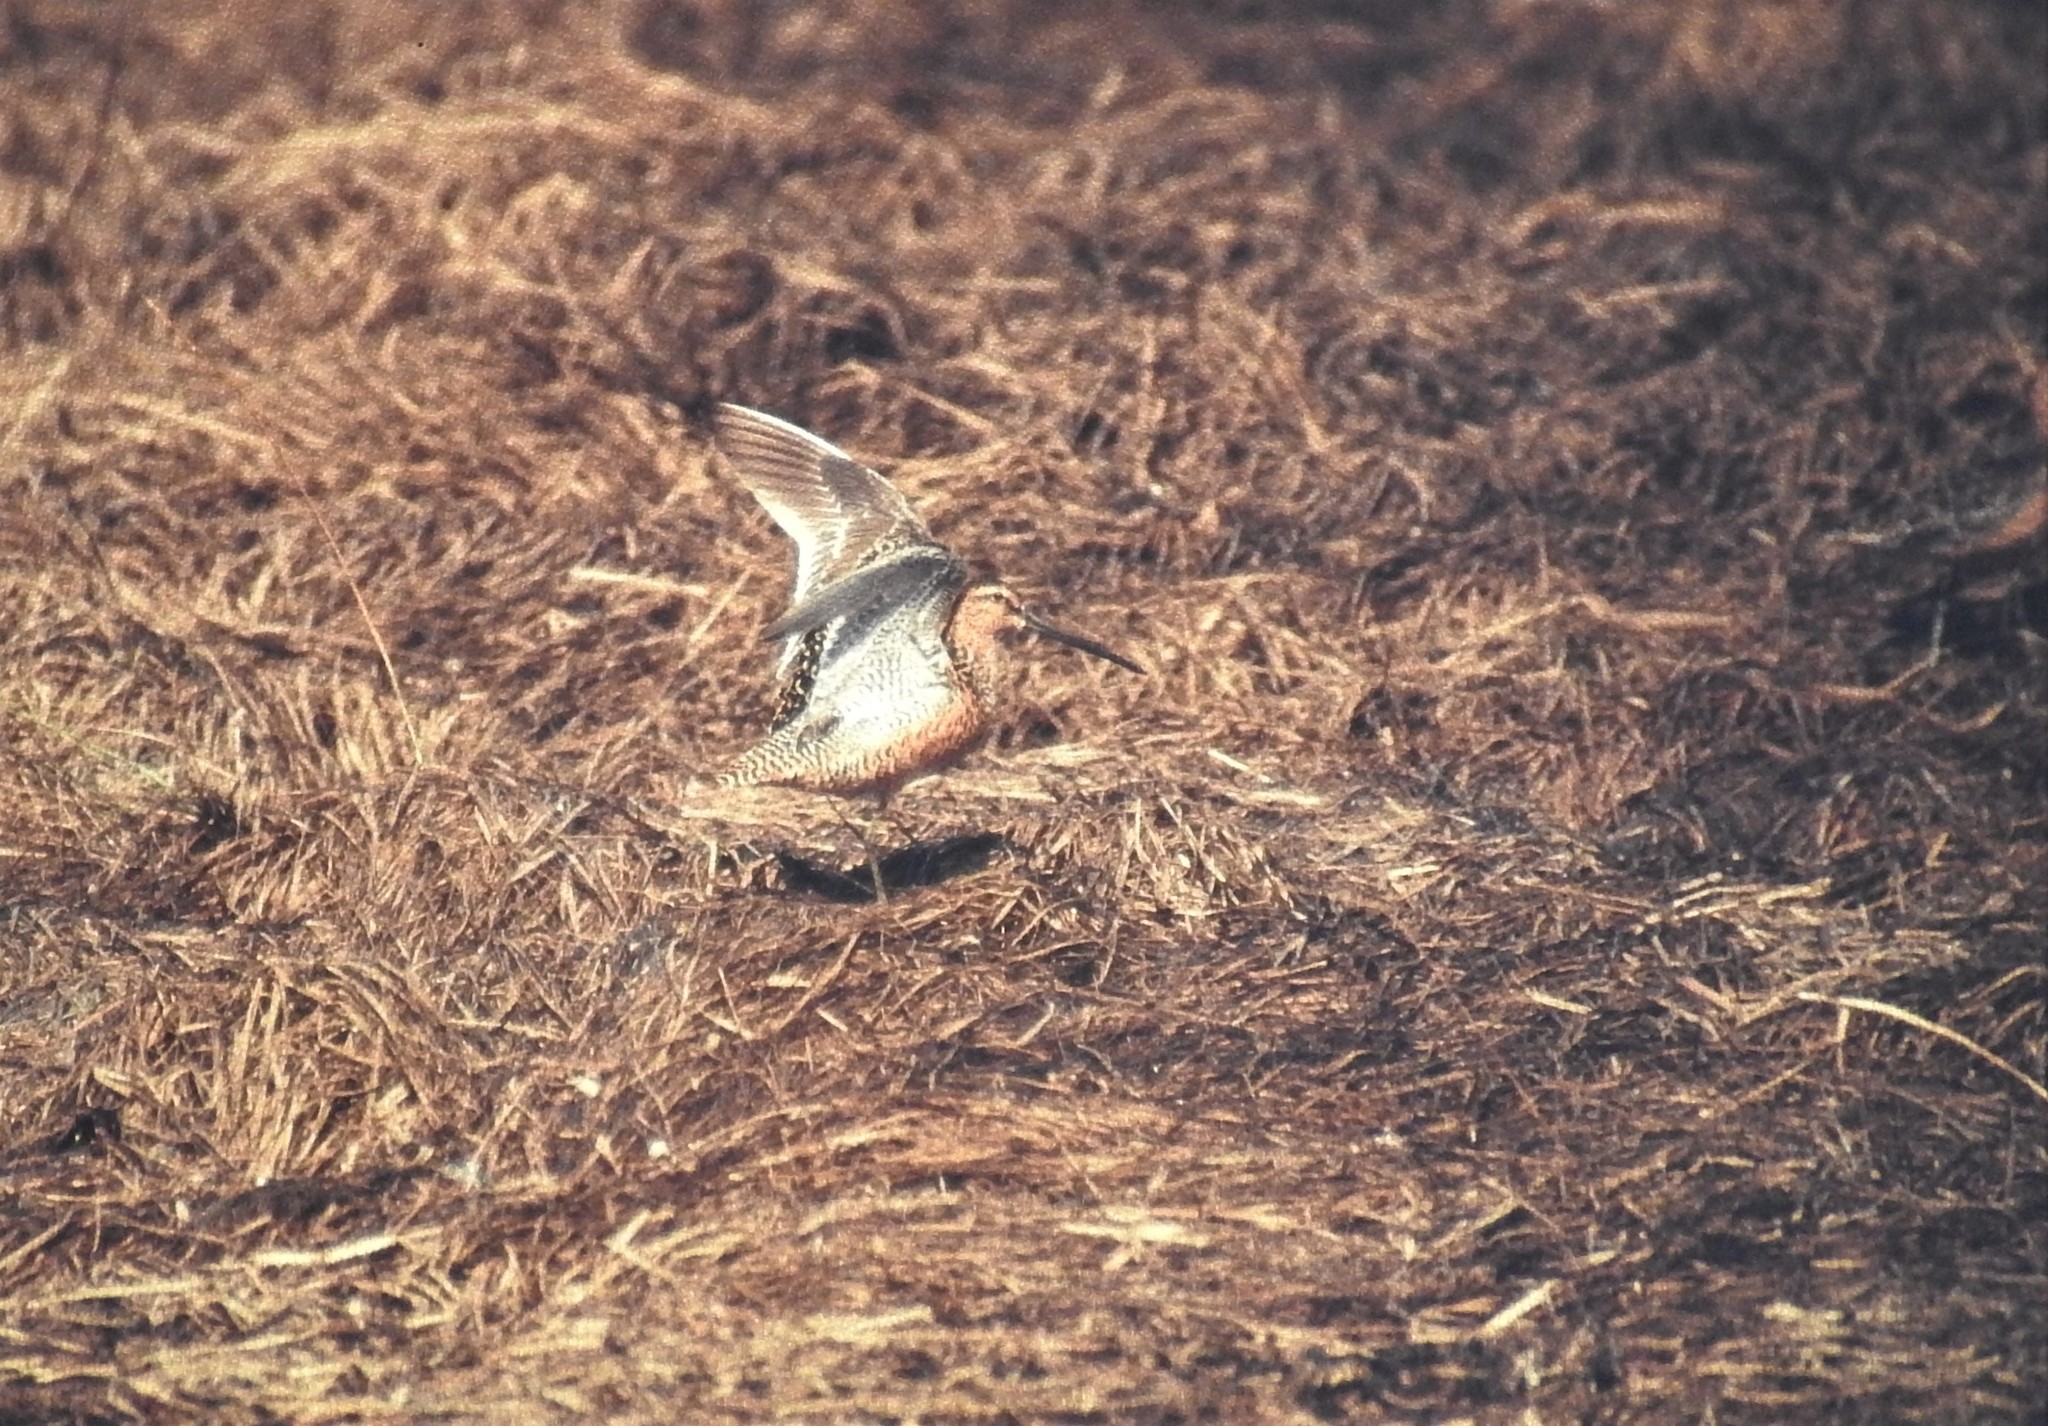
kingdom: Animalia
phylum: Chordata
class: Aves
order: Charadriiformes
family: Scolopacidae
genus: Limnodromus
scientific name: Limnodromus scolopaceus
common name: Long-billed dowitcher
